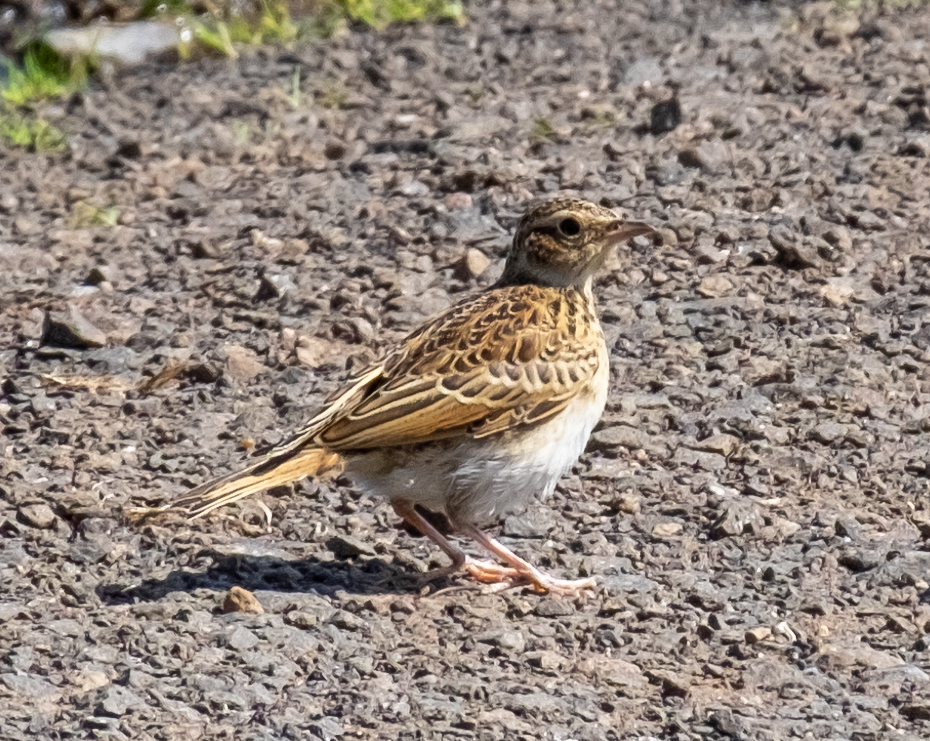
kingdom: Animalia
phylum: Chordata
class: Aves
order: Passeriformes
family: Alaudidae
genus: Alauda
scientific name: Alauda arvensis
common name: Eurasian skylark
